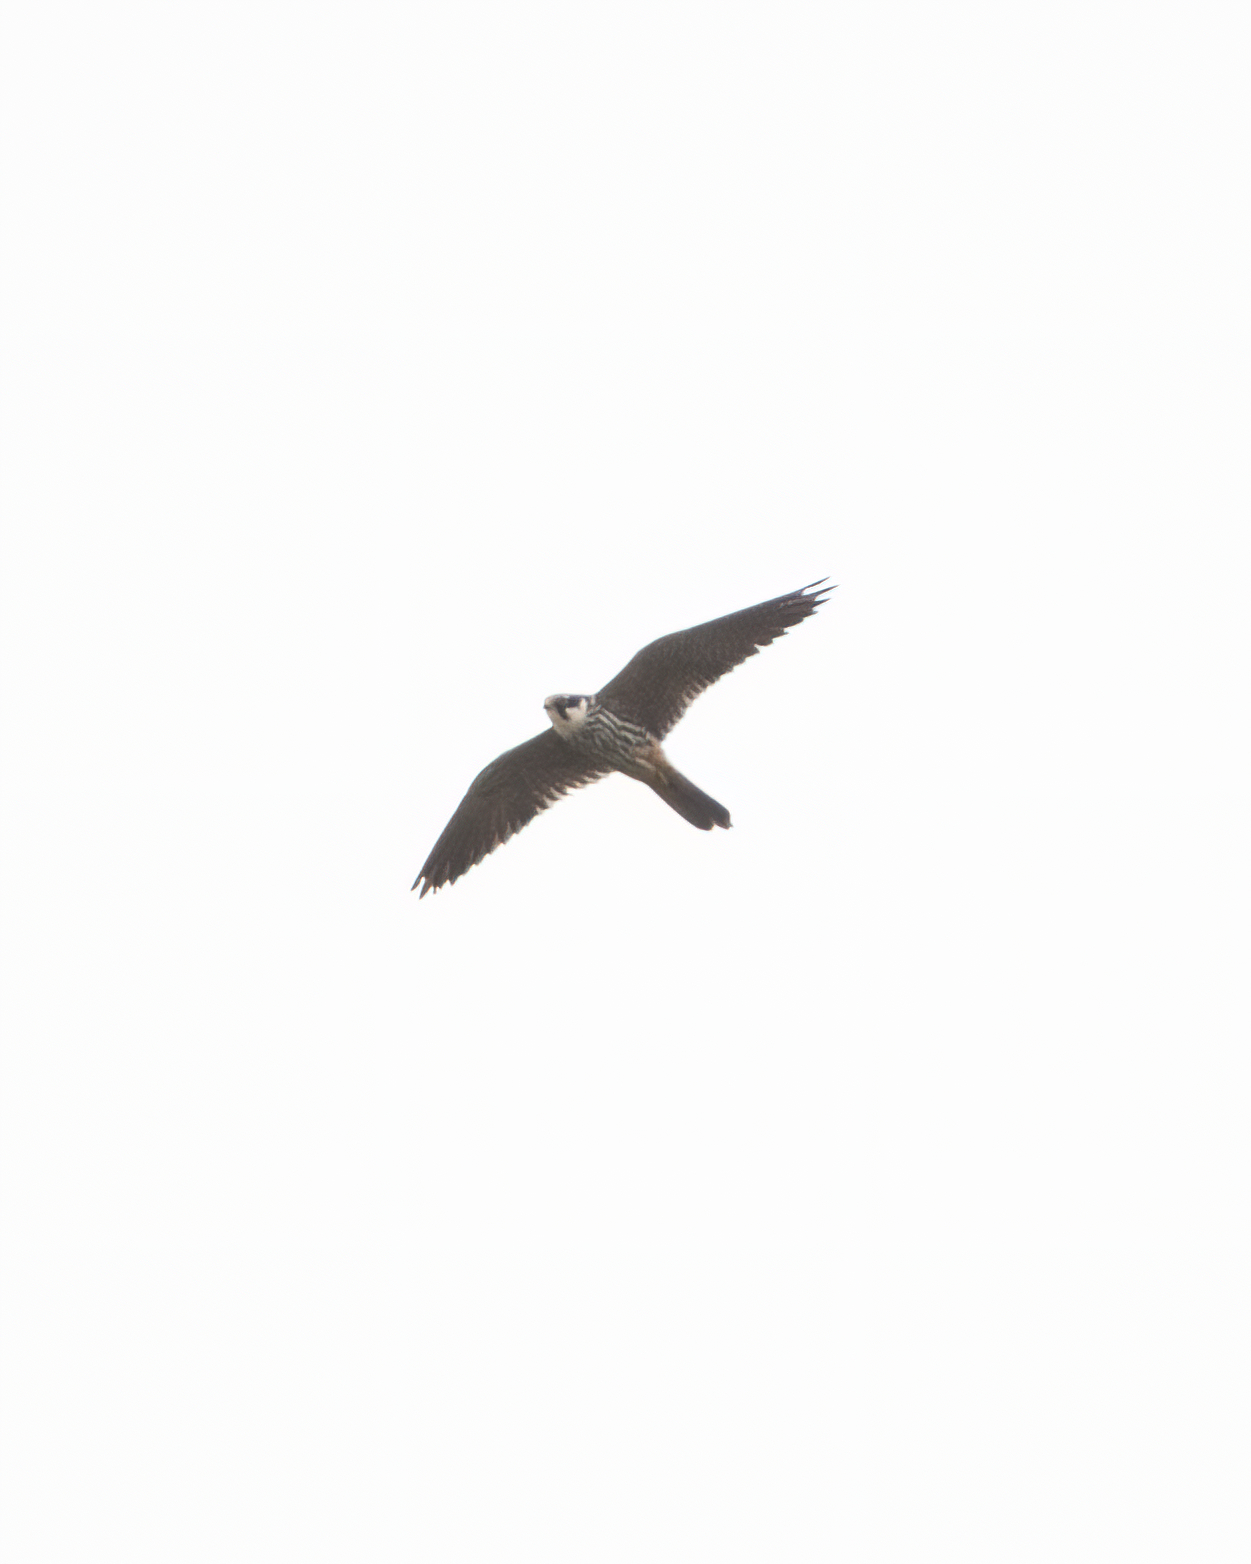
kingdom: Animalia
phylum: Chordata
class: Aves
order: Falconiformes
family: Falconidae
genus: Falco
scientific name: Falco subbuteo
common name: Eurasian hobby
